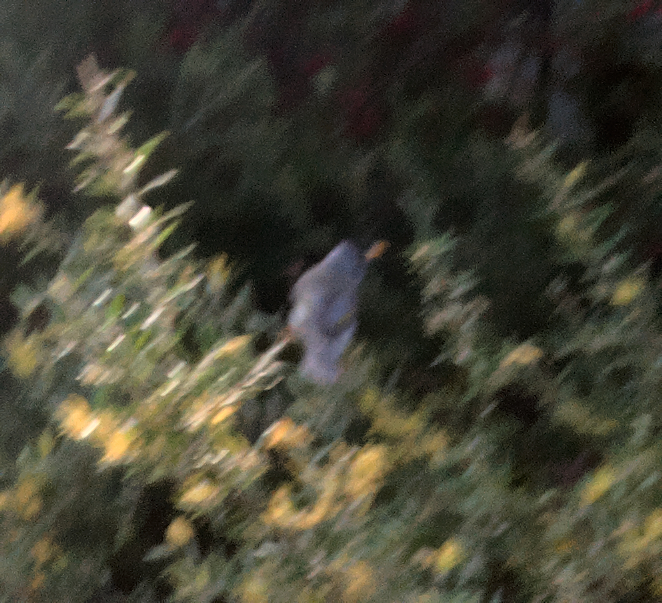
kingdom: Animalia
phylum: Chordata
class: Aves
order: Passeriformes
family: Meliphagidae
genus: Manorina
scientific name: Manorina melanocephala
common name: Noisy miner
